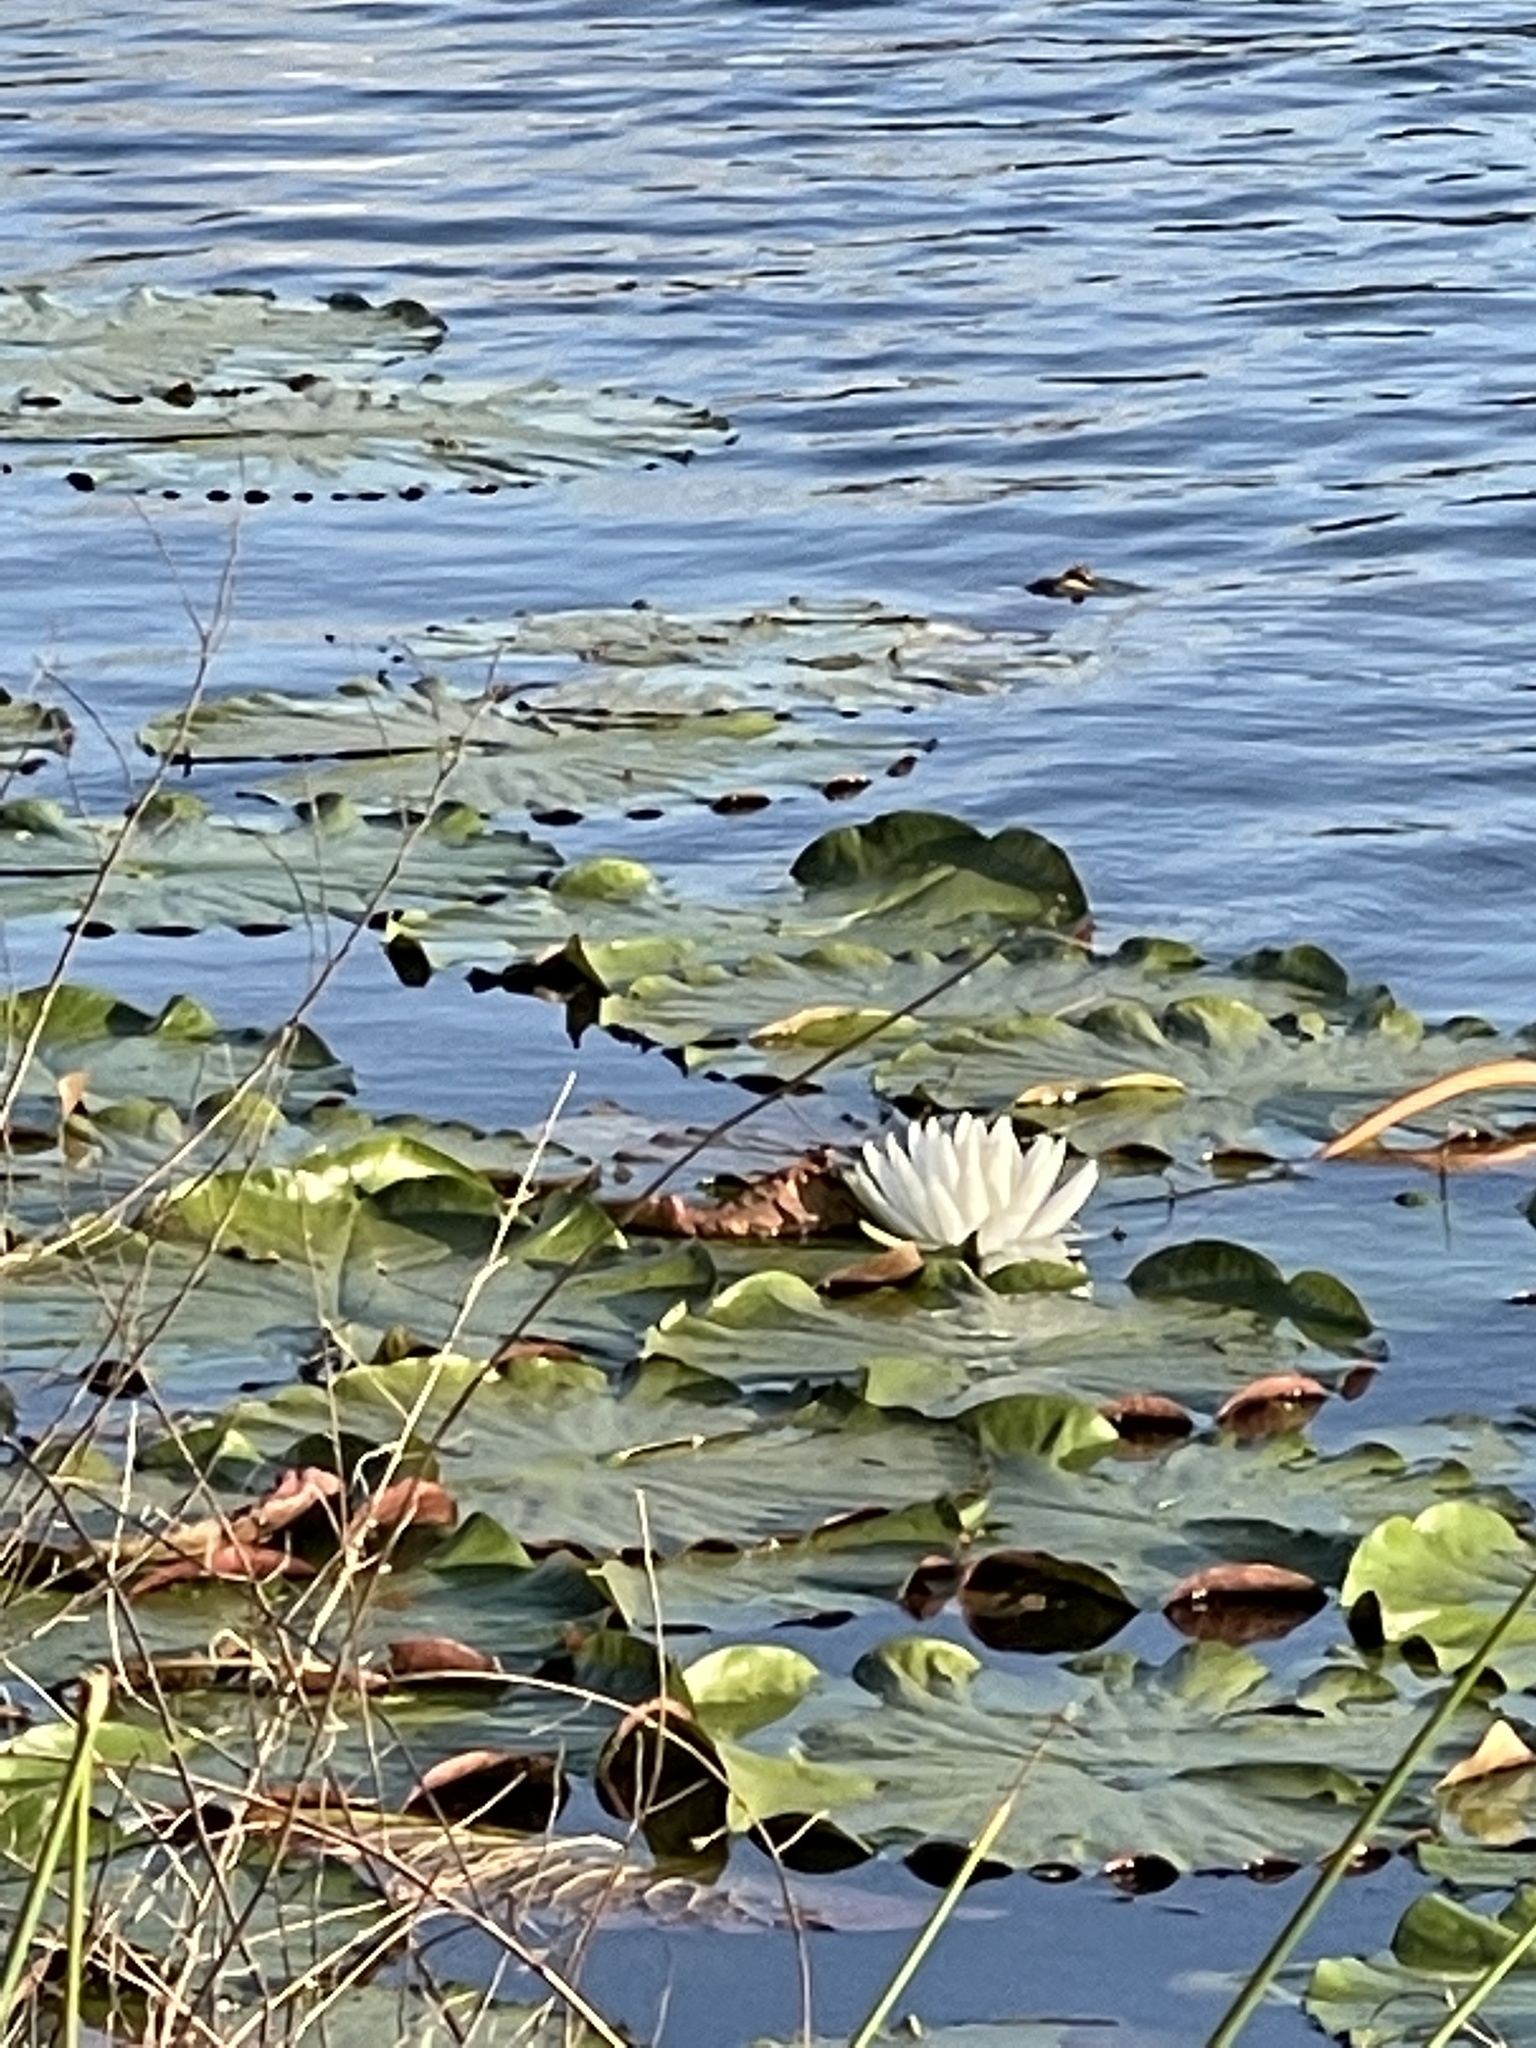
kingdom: Plantae
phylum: Tracheophyta
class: Magnoliopsida
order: Nymphaeales
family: Nymphaeaceae
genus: Nymphaea
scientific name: Nymphaea odorata
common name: Fragrant water-lily
